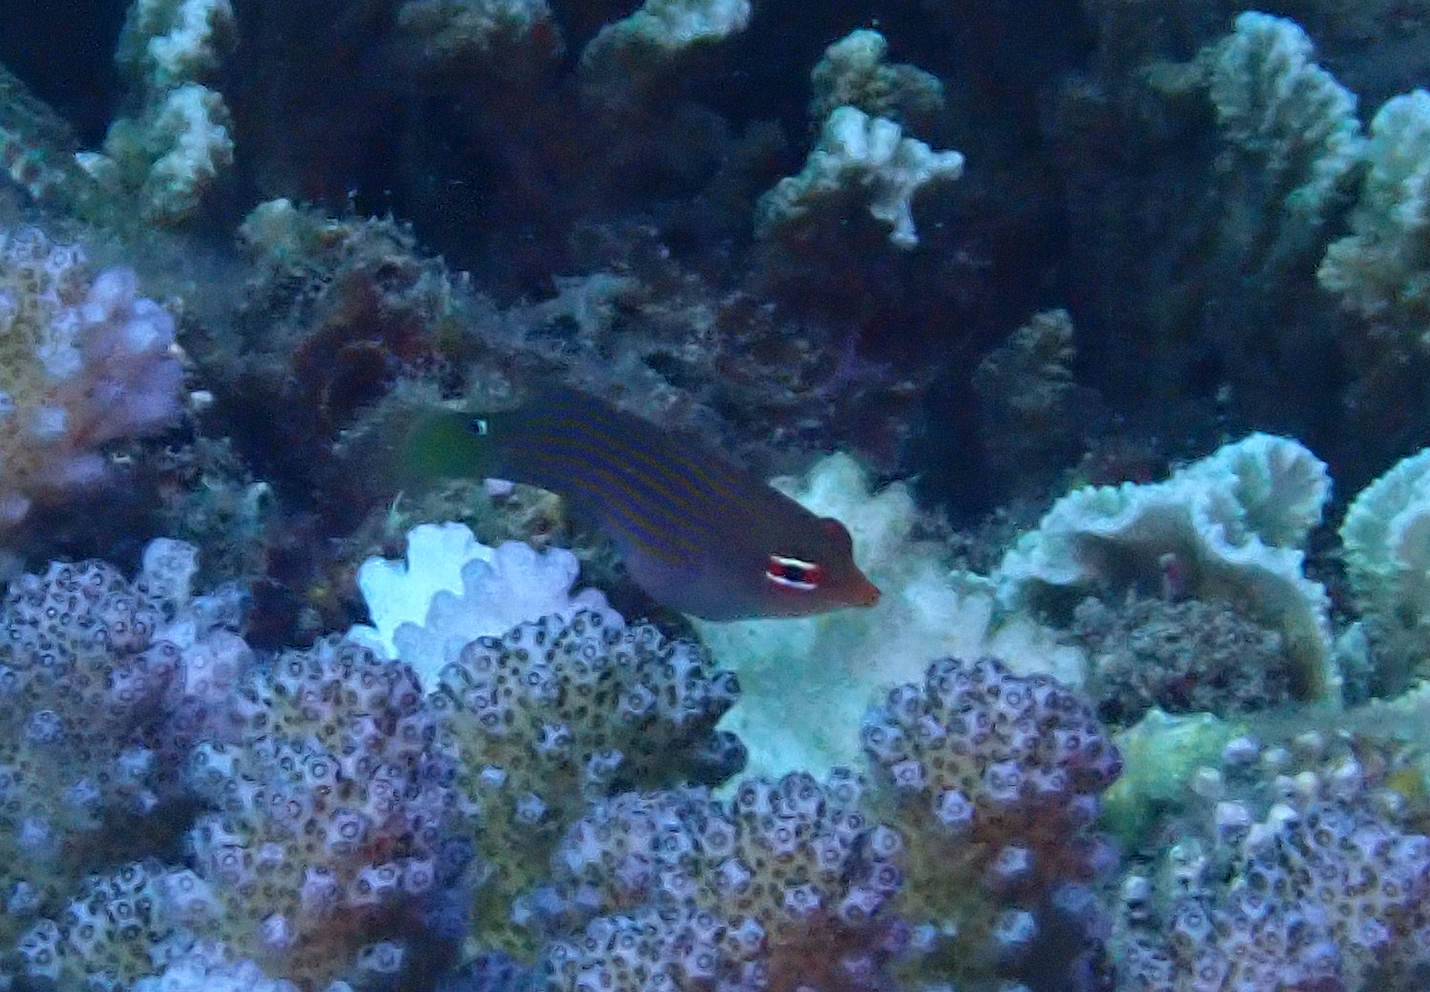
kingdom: Animalia
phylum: Chordata
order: Perciformes
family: Labridae
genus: Pseudocheilinus
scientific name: Pseudocheilinus hexataenia
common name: Sixline wrasse
